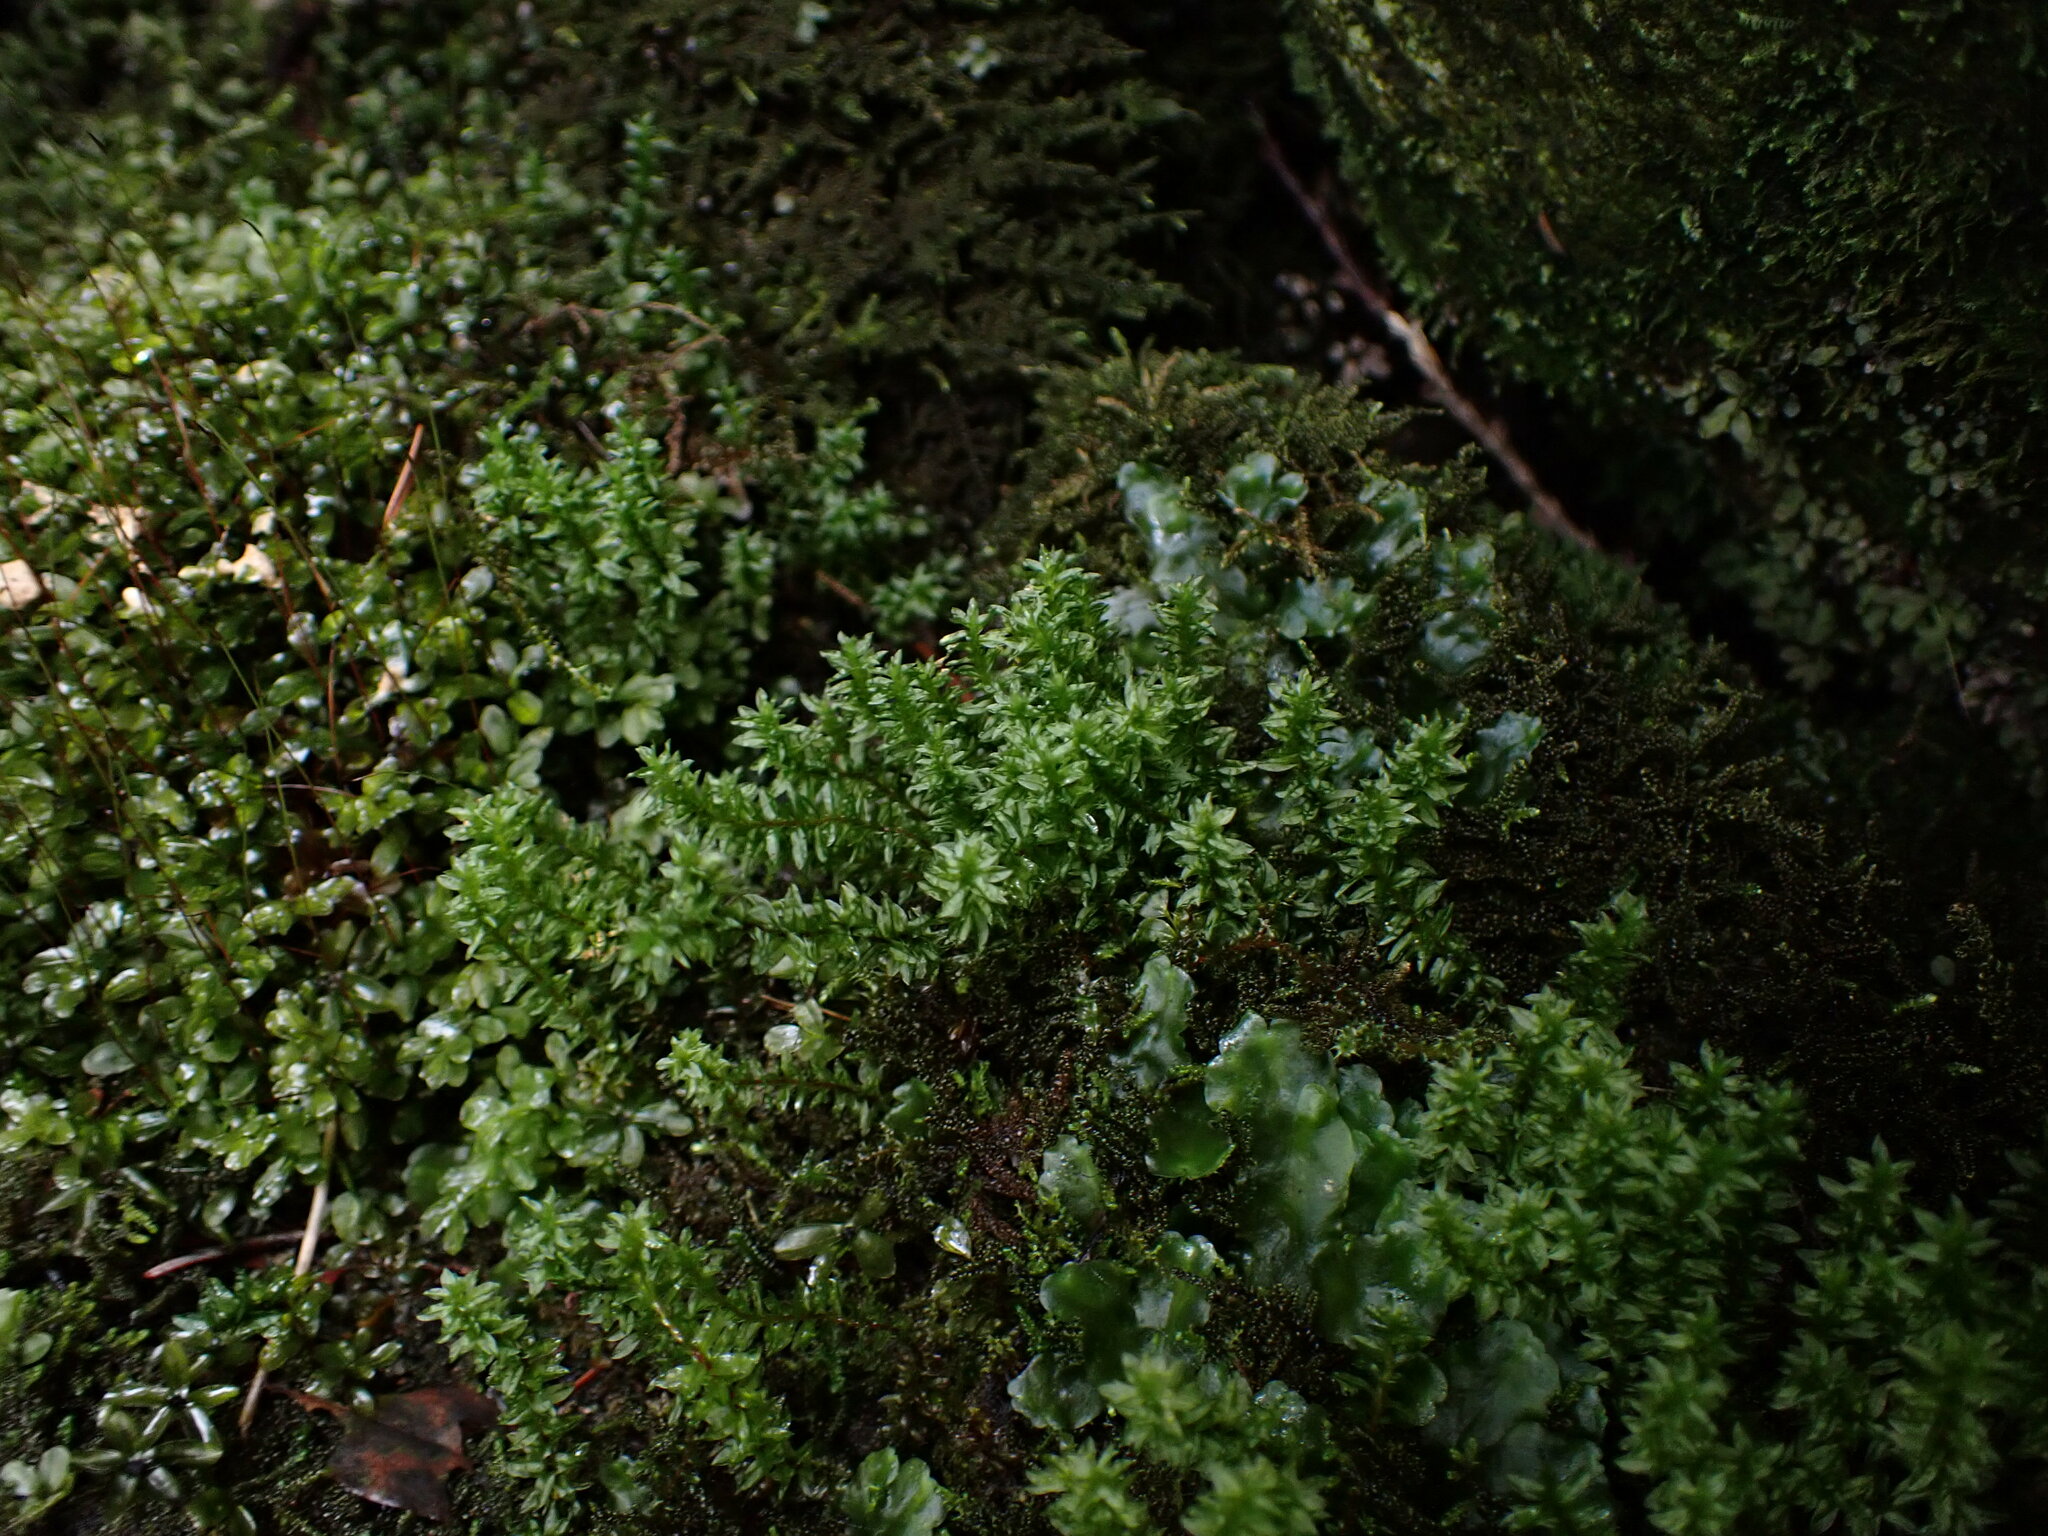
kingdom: Plantae
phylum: Bryophyta
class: Polytrichopsida
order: Polytrichales
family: Polytrichaceae
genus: Oligotrichum
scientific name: Oligotrichum parallelum
